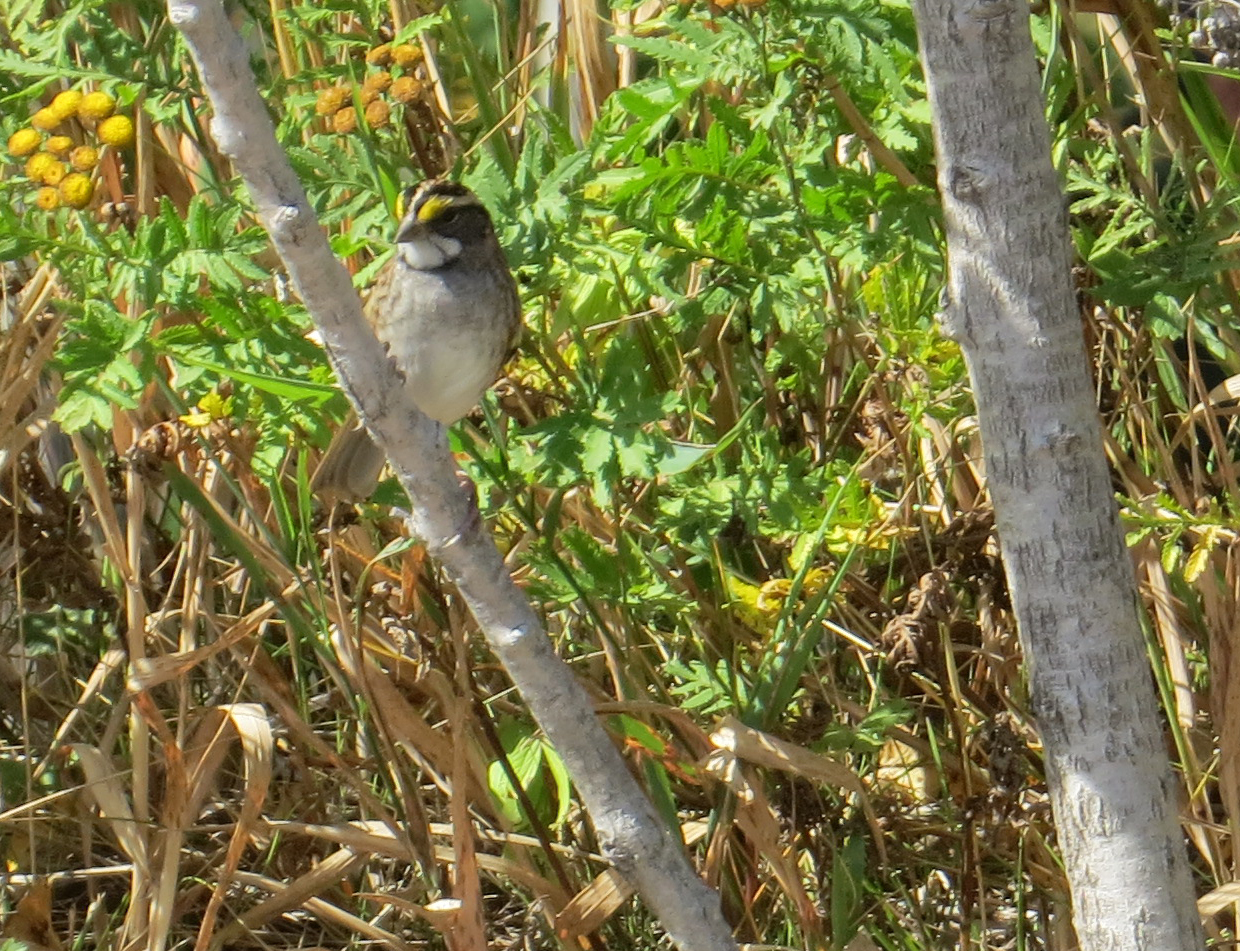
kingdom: Animalia
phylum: Chordata
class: Aves
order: Passeriformes
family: Passerellidae
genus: Zonotrichia
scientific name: Zonotrichia albicollis
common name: White-throated sparrow
